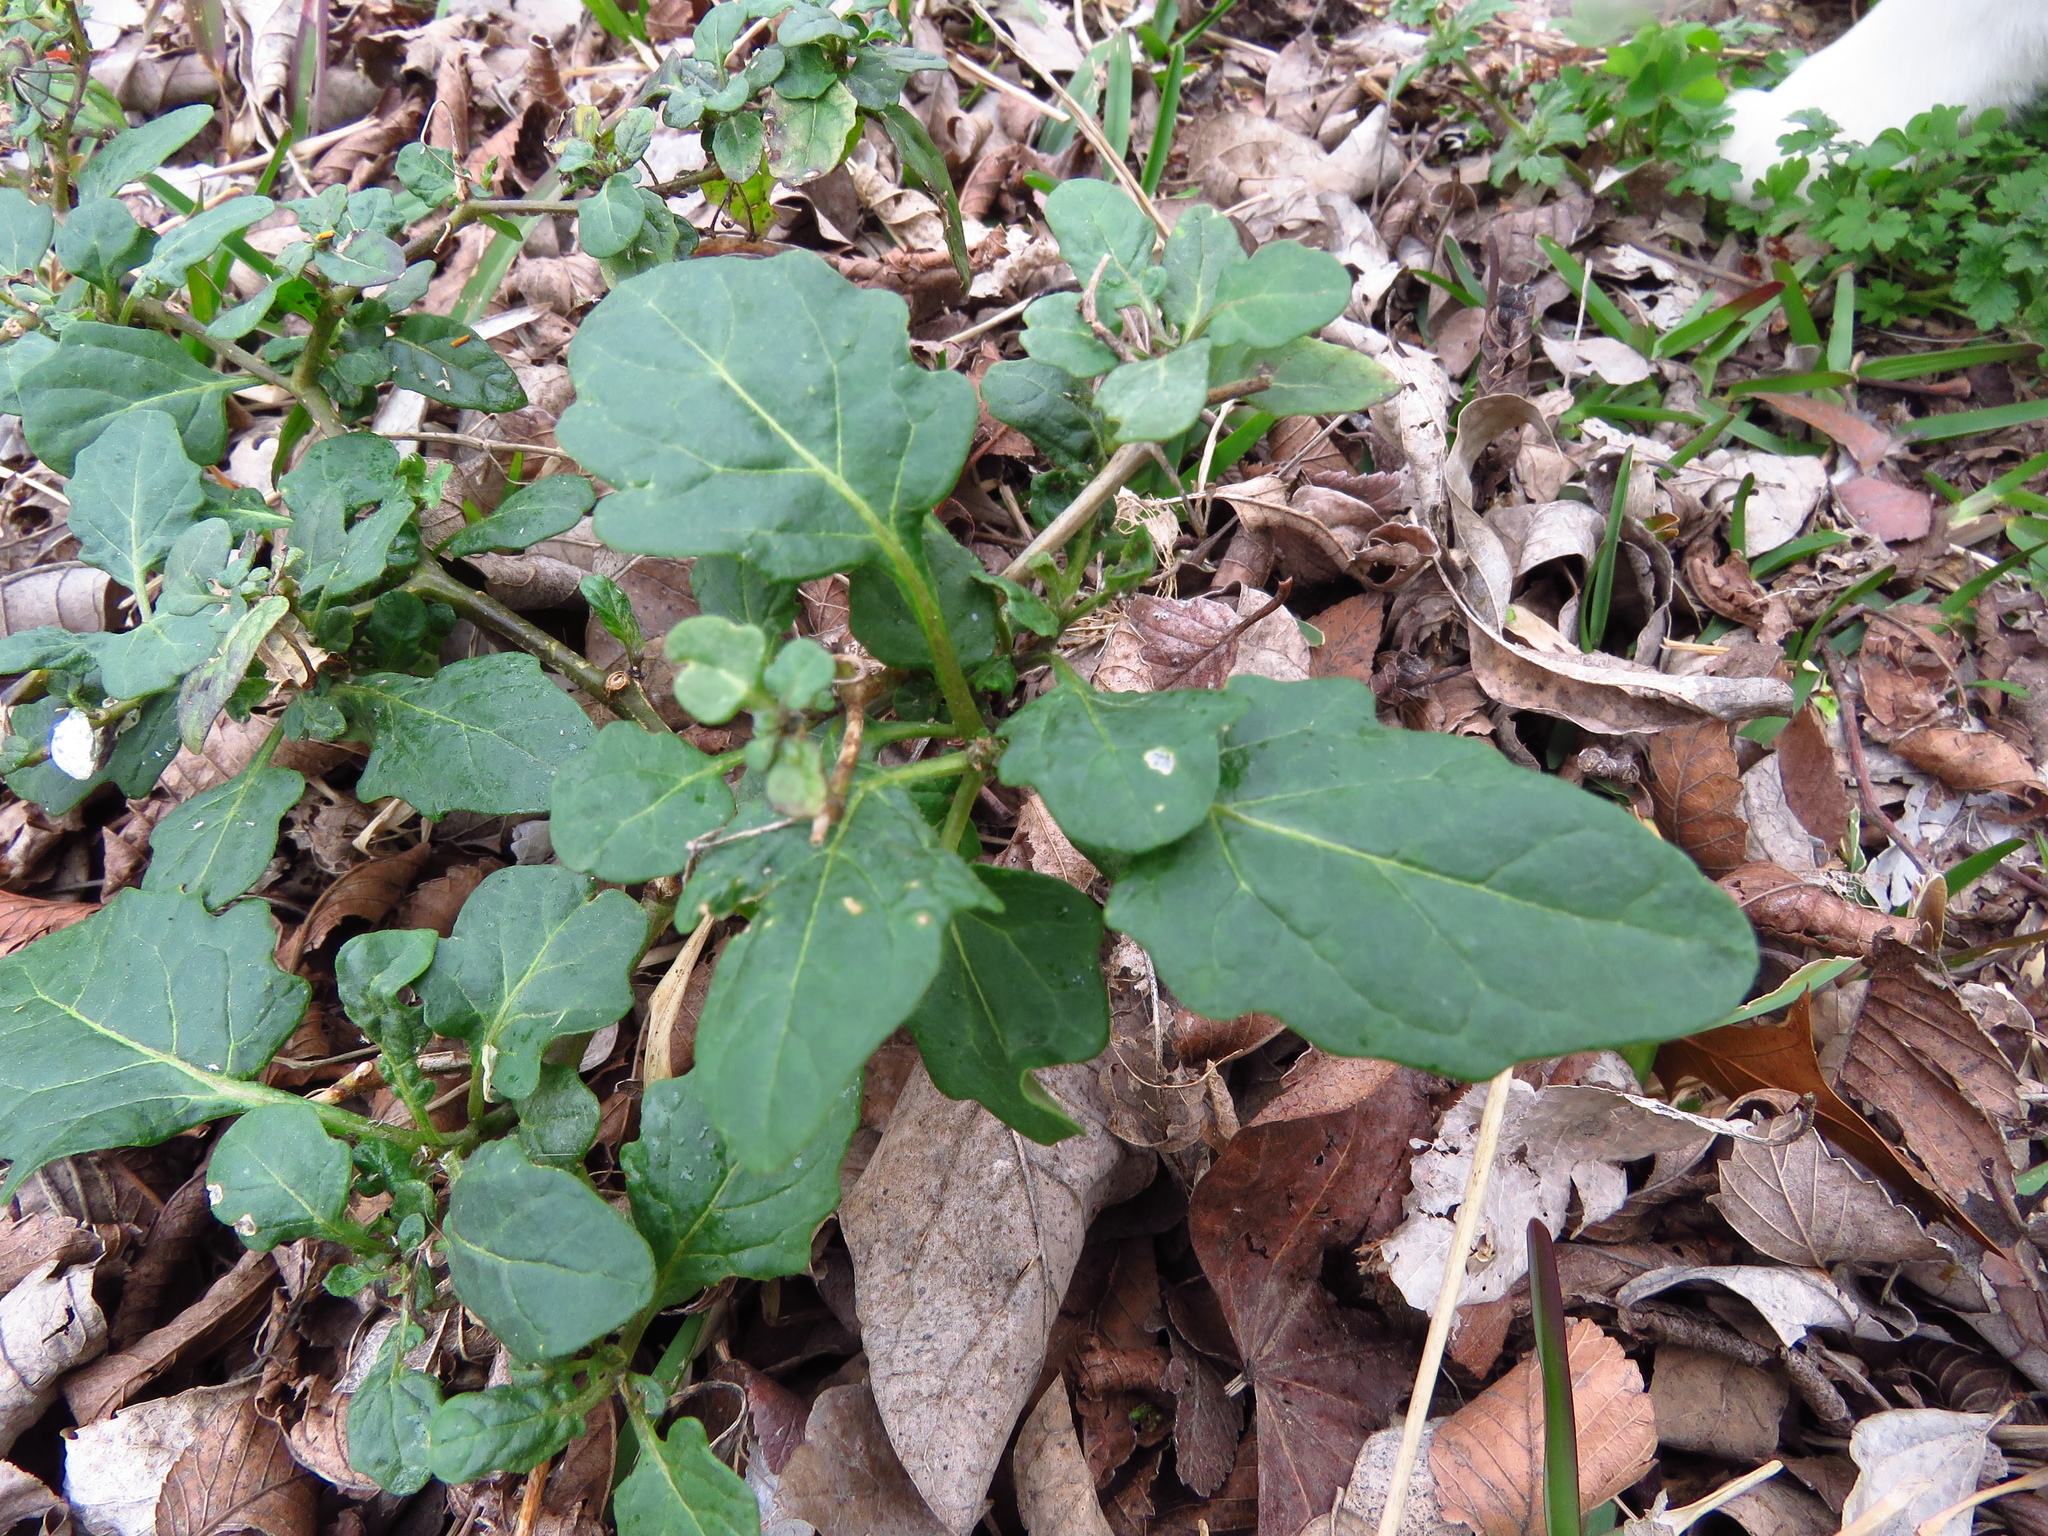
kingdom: Plantae
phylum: Tracheophyta
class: Magnoliopsida
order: Solanales
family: Solanaceae
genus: Solanum
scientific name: Solanum emulans
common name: Eastern black nightshade
